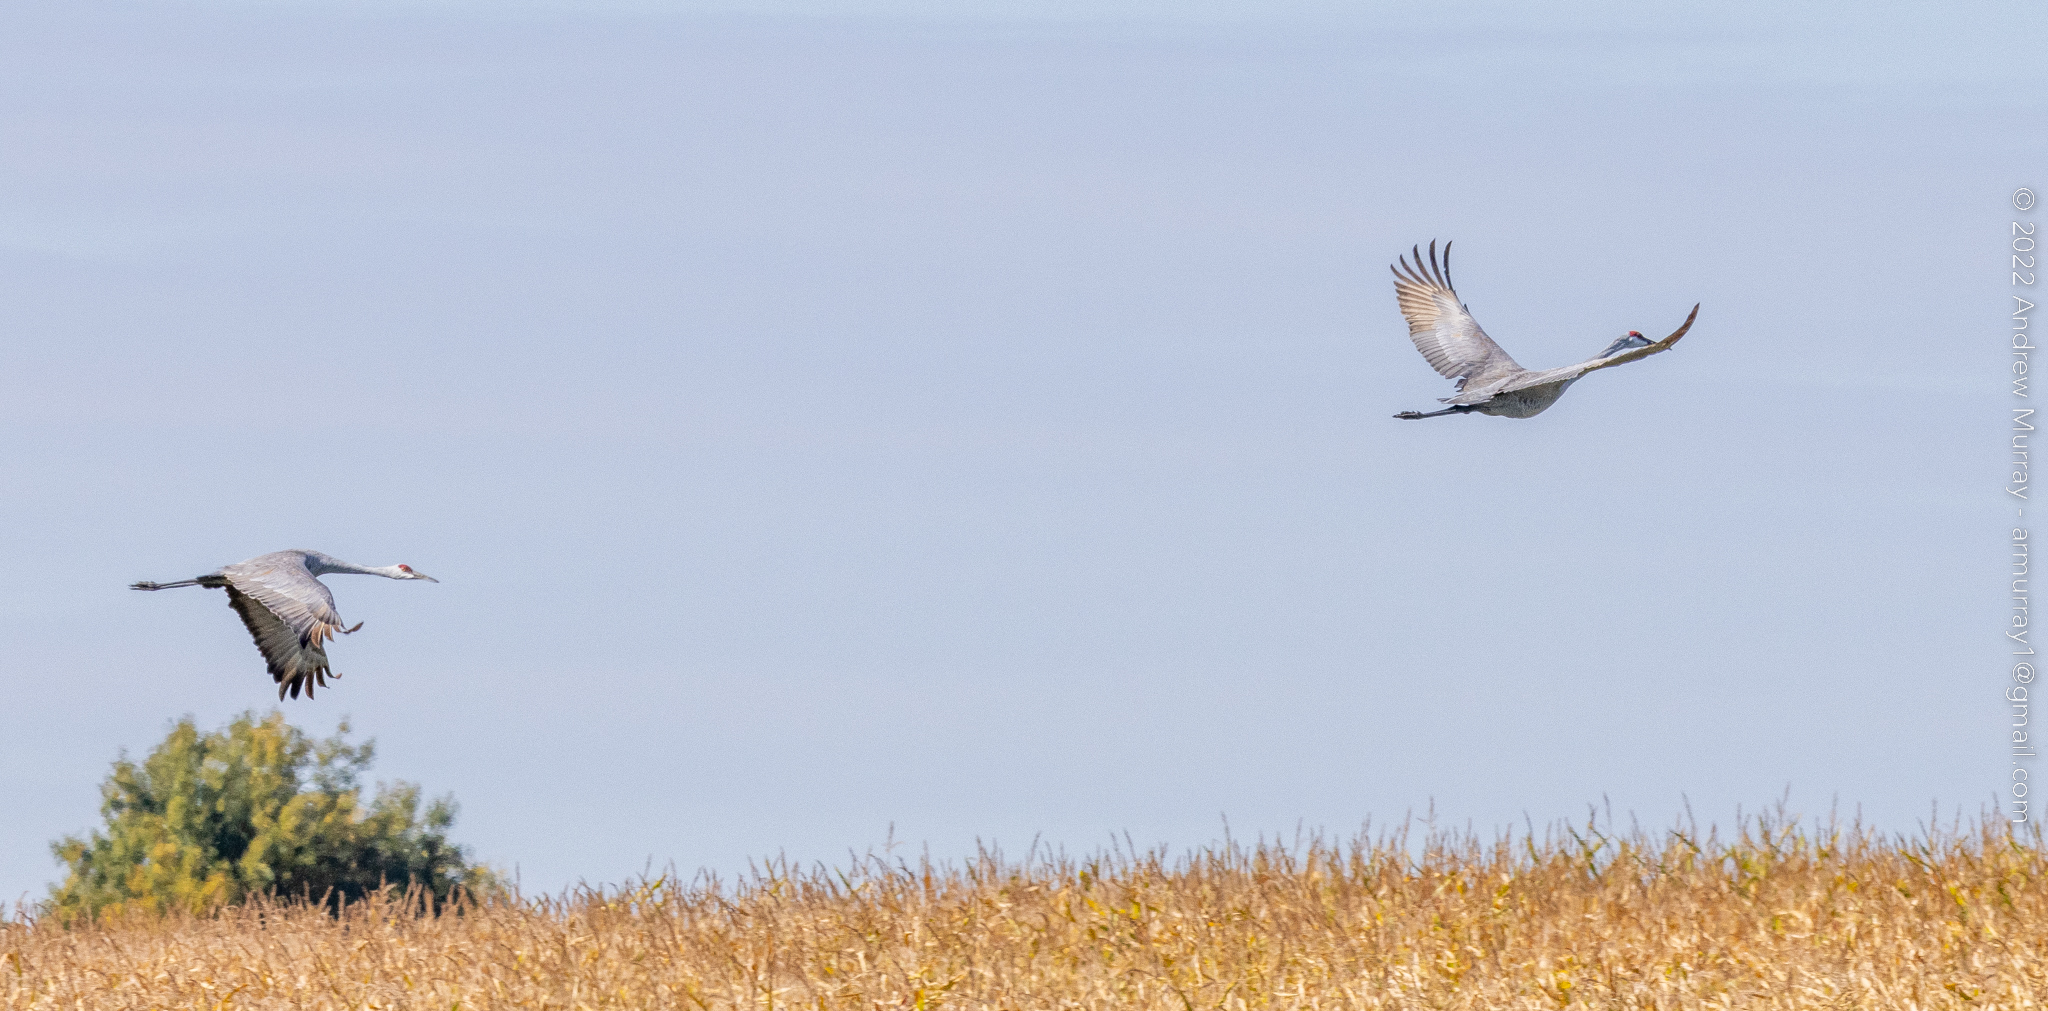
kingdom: Animalia
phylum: Chordata
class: Aves
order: Gruiformes
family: Gruidae
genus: Grus
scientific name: Grus canadensis
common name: Sandhill crane
